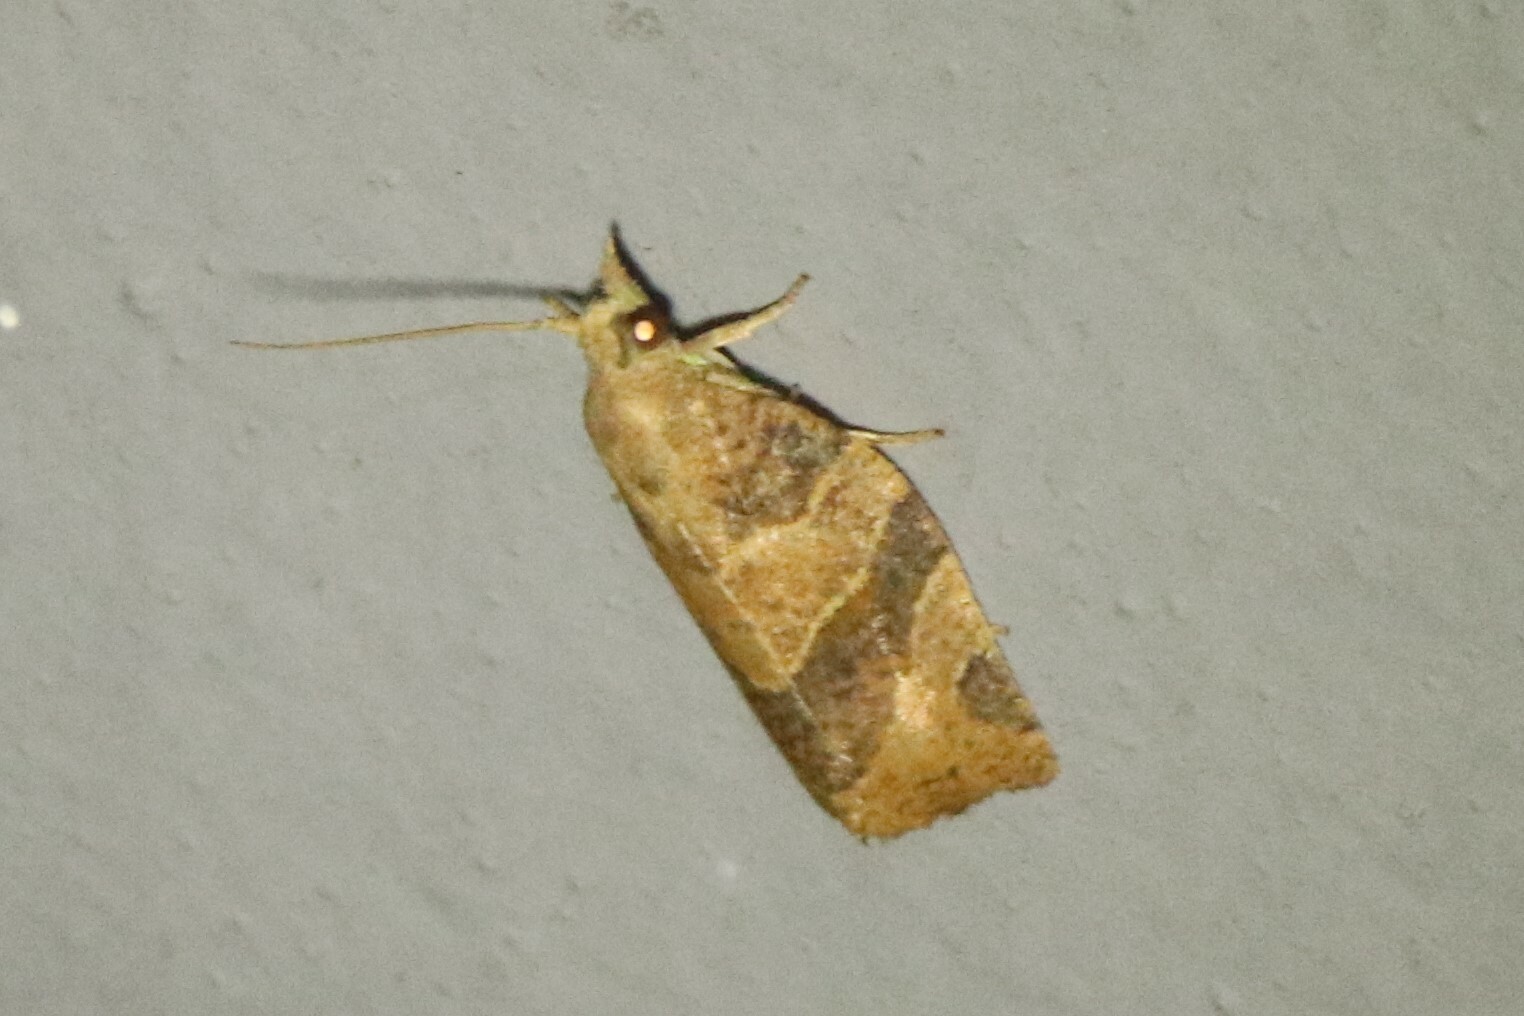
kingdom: Animalia
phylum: Arthropoda
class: Insecta
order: Lepidoptera
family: Tortricidae
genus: Pandemis
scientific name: Pandemis limitata
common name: Three-lined leafroller moth
